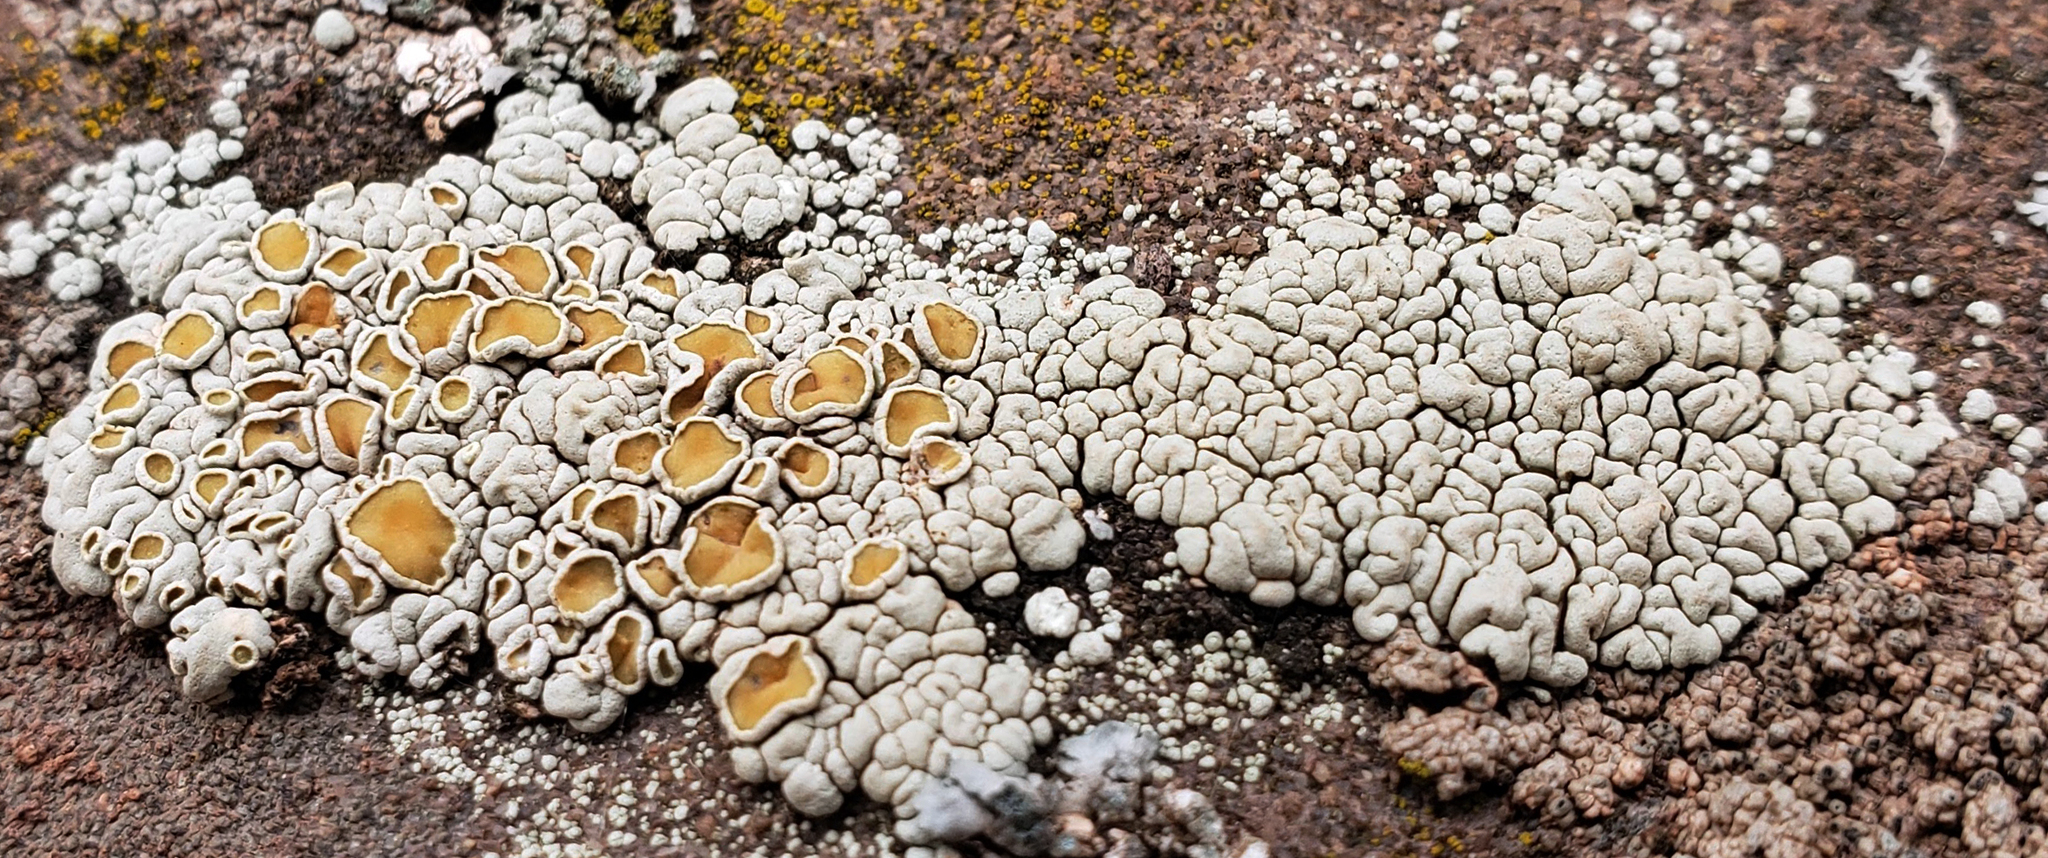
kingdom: Fungi
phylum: Ascomycota
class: Lecanoromycetes
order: Lecanorales
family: Lecanoraceae
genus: Sedelnikovaea
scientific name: Sedelnikovaea subdiscrepans
